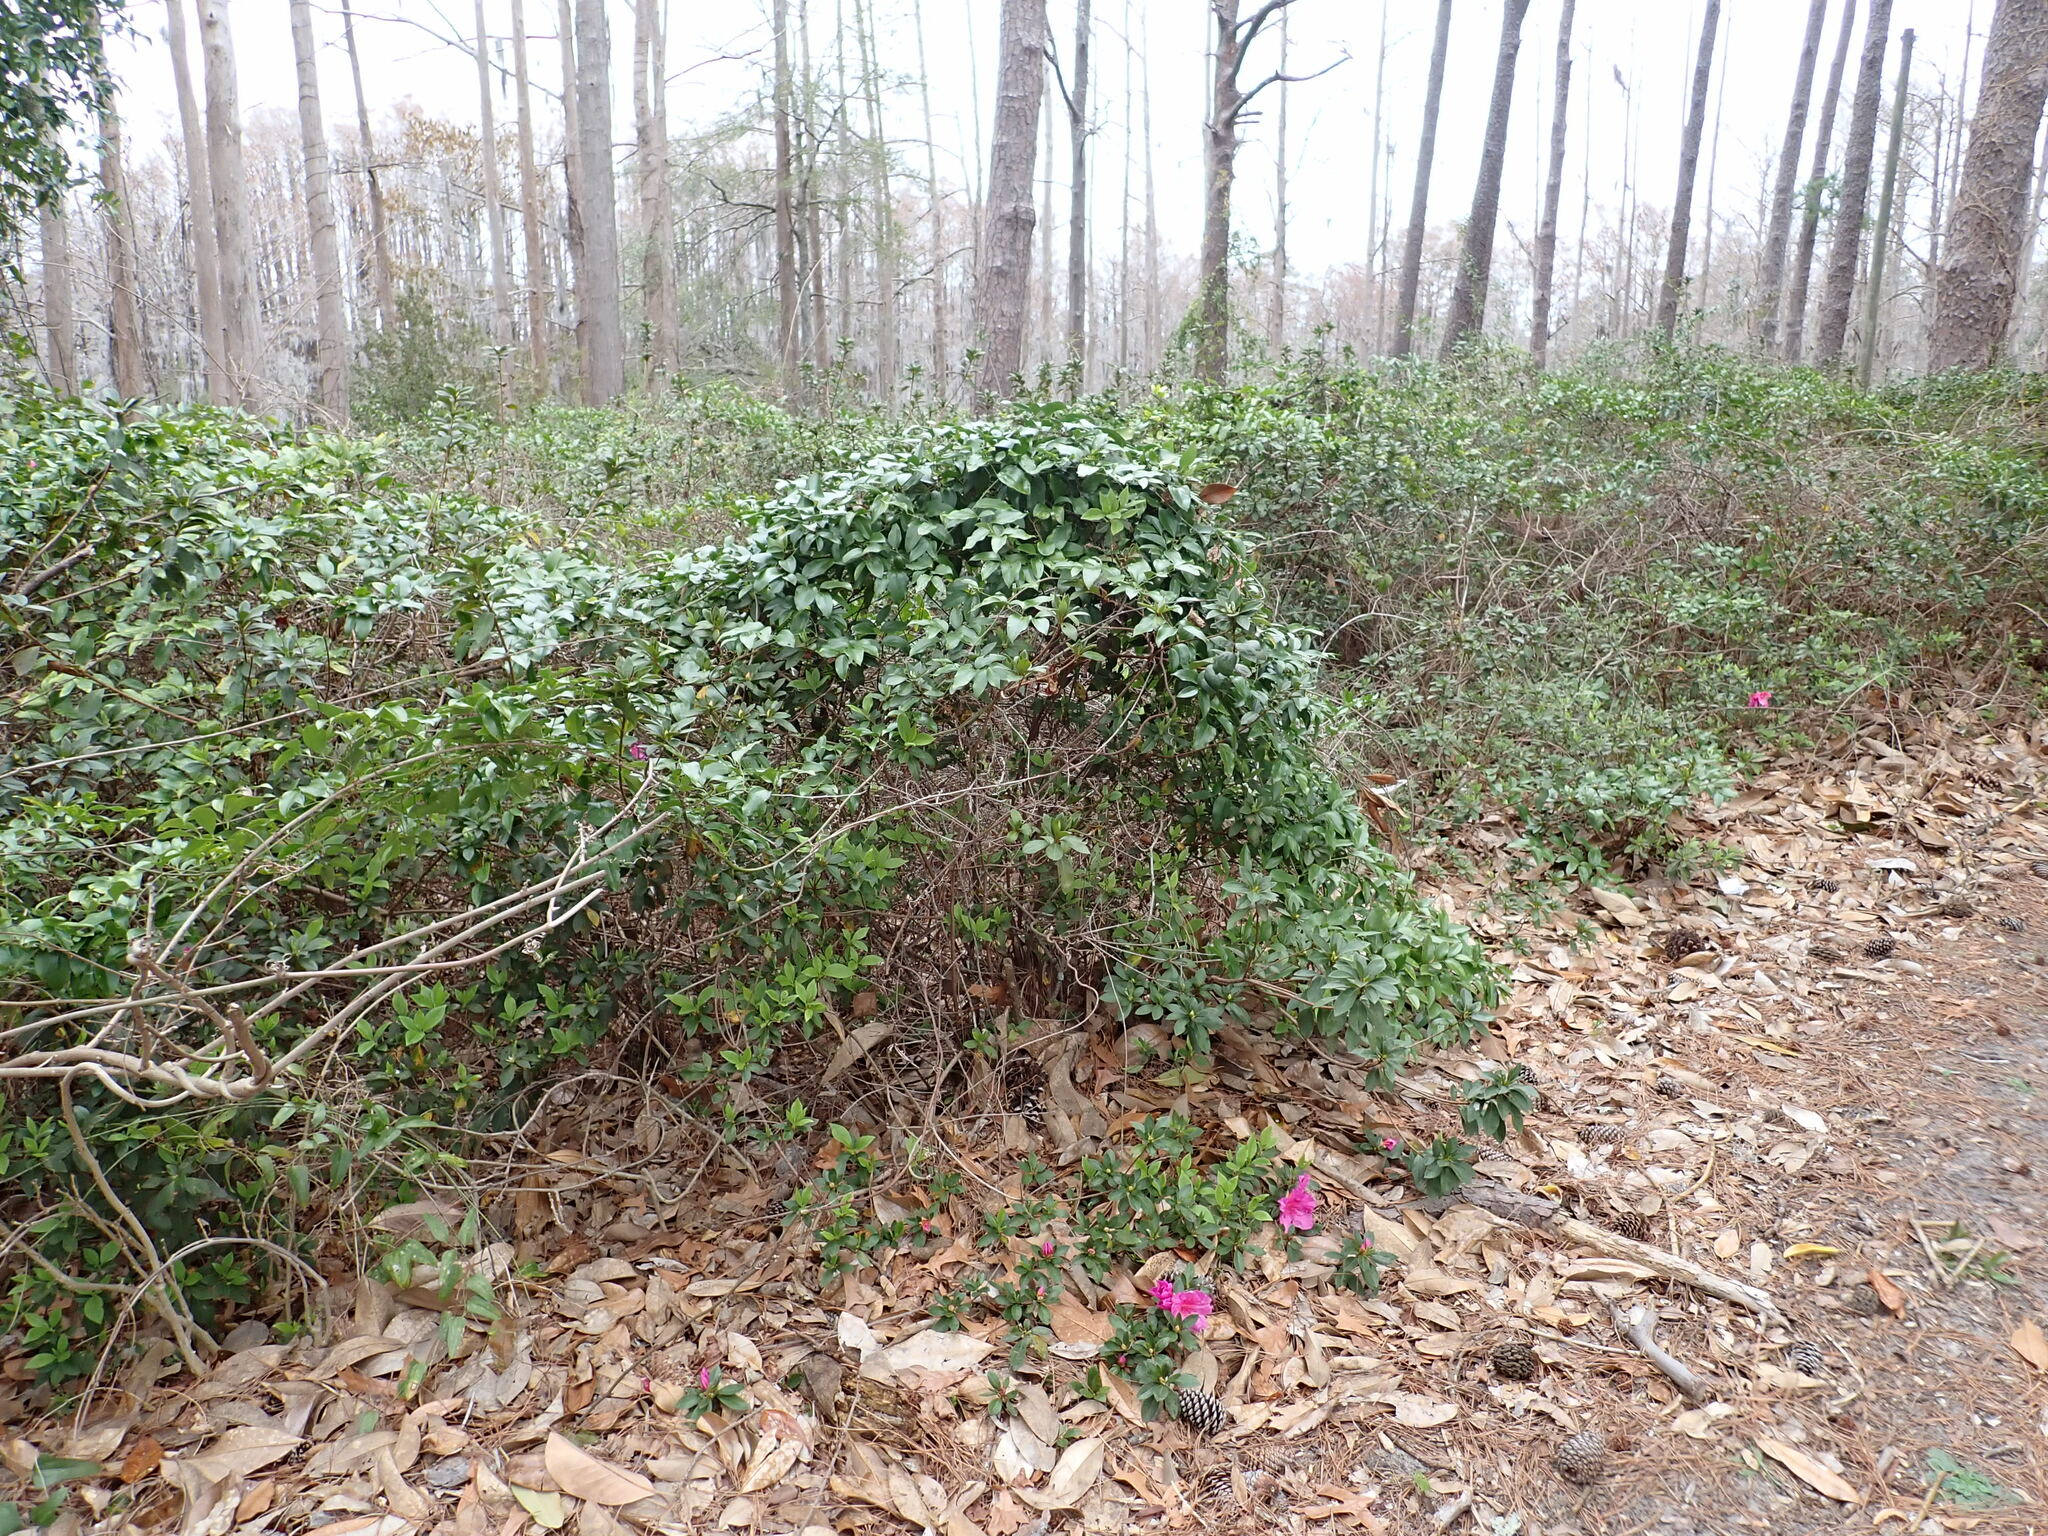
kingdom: Plantae
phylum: Tracheophyta
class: Magnoliopsida
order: Ericales
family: Ericaceae
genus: Rhododendron
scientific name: Rhododendron indicum
